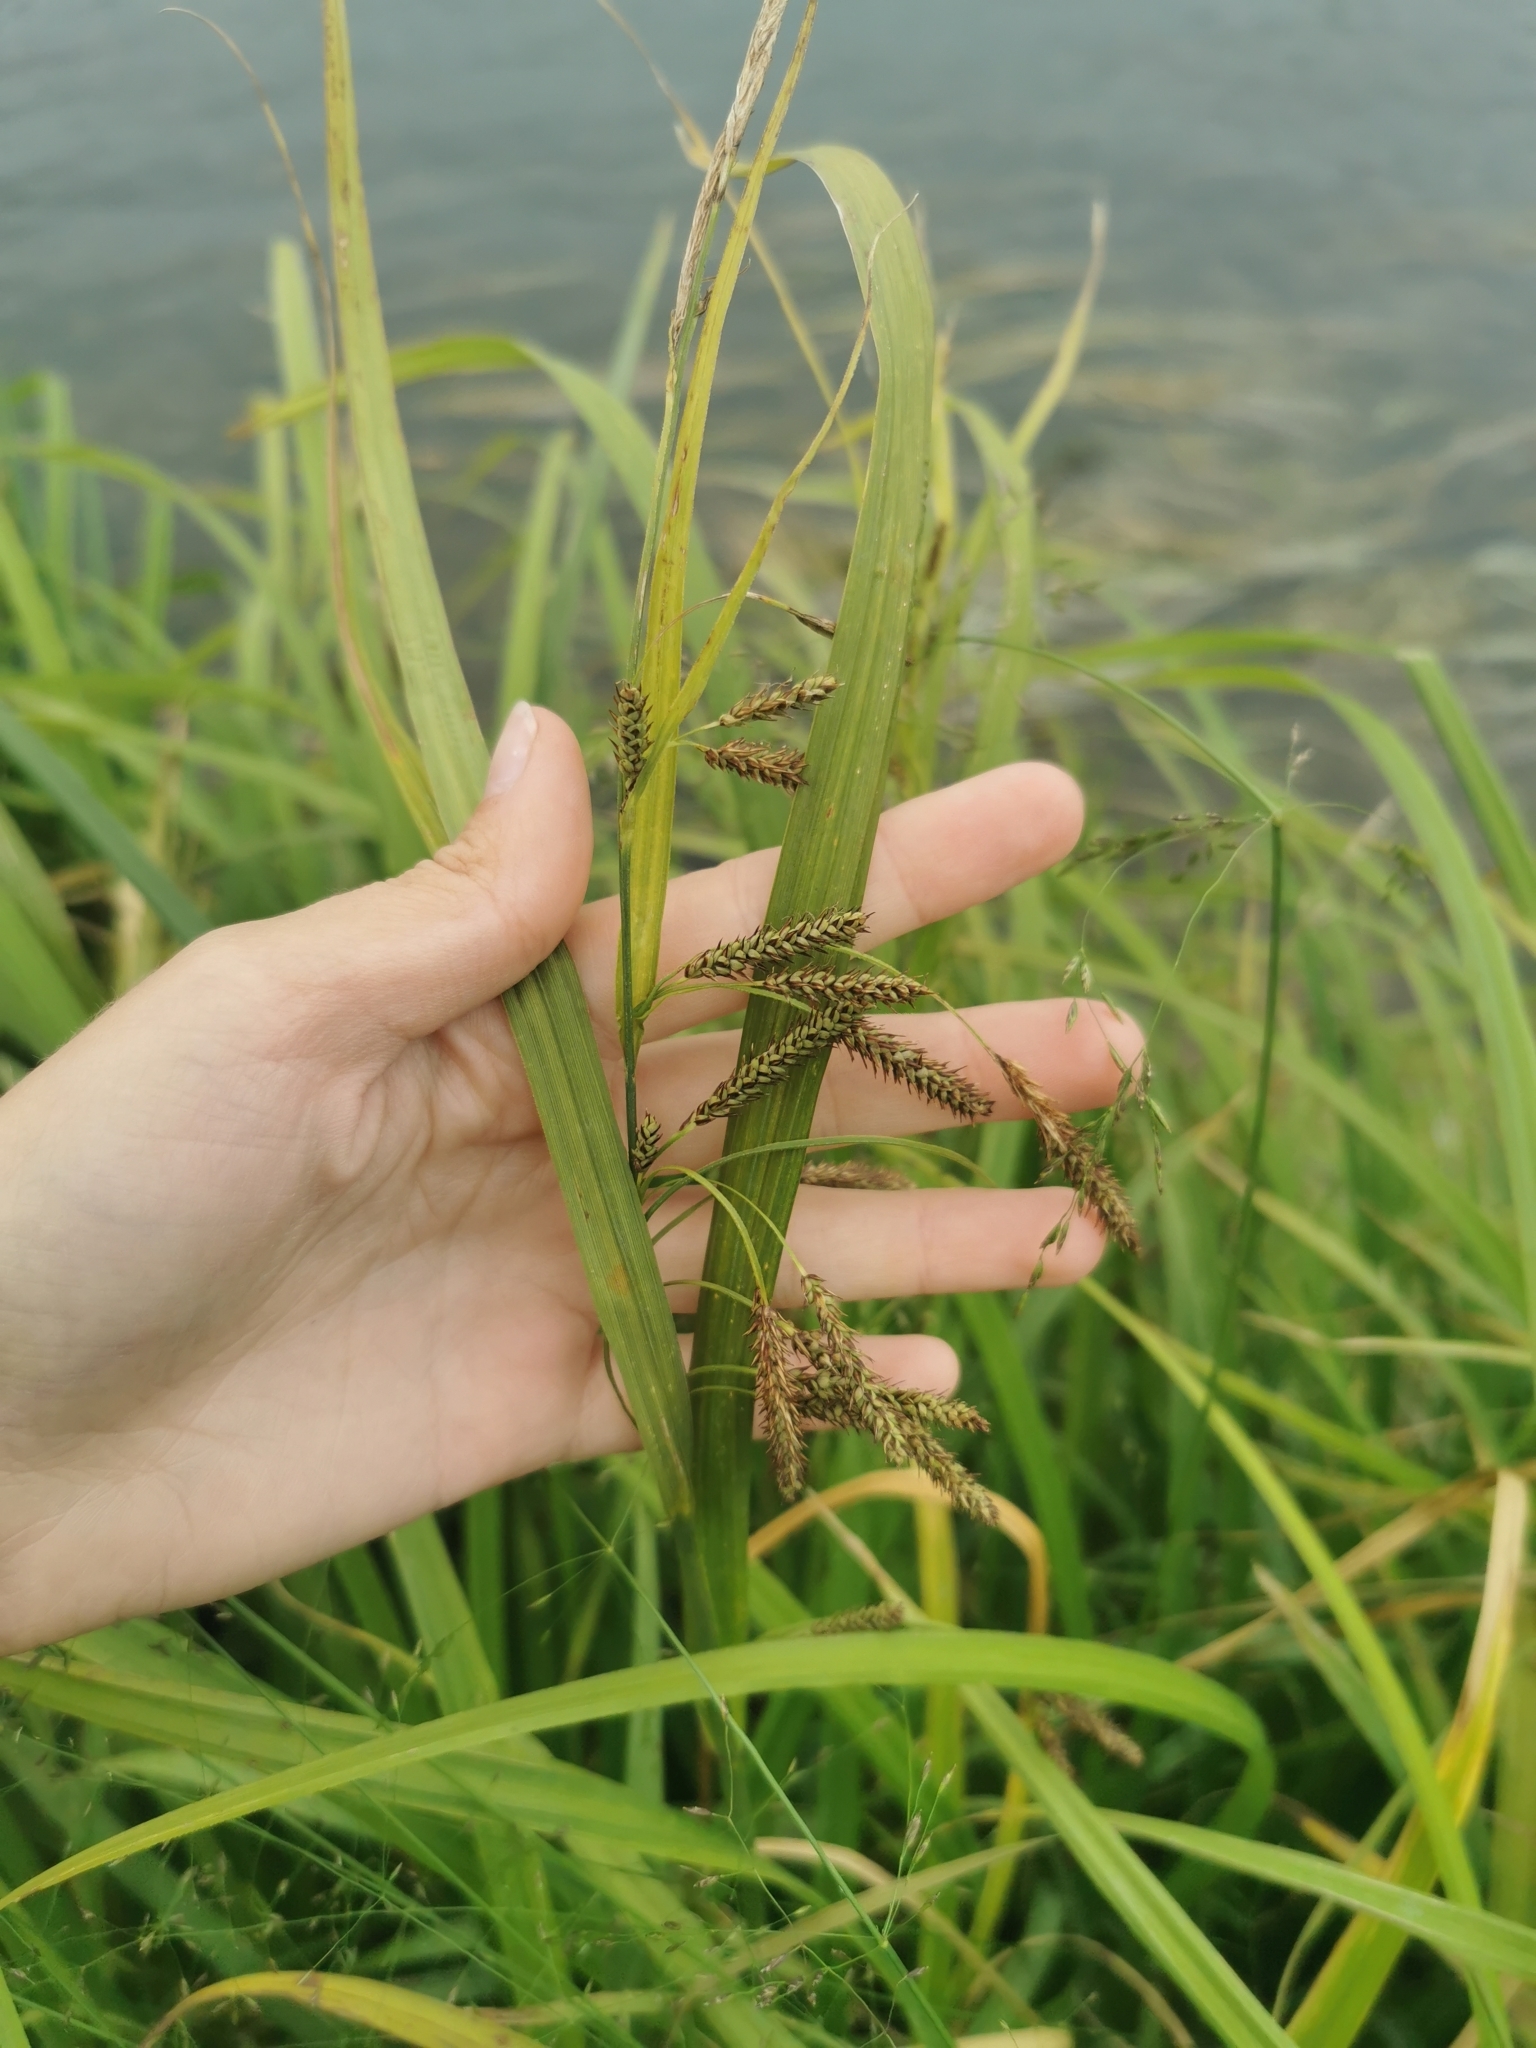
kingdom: Plantae
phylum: Tracheophyta
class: Liliopsida
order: Poales
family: Cyperaceae
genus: Carex
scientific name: Carex tuminensis
